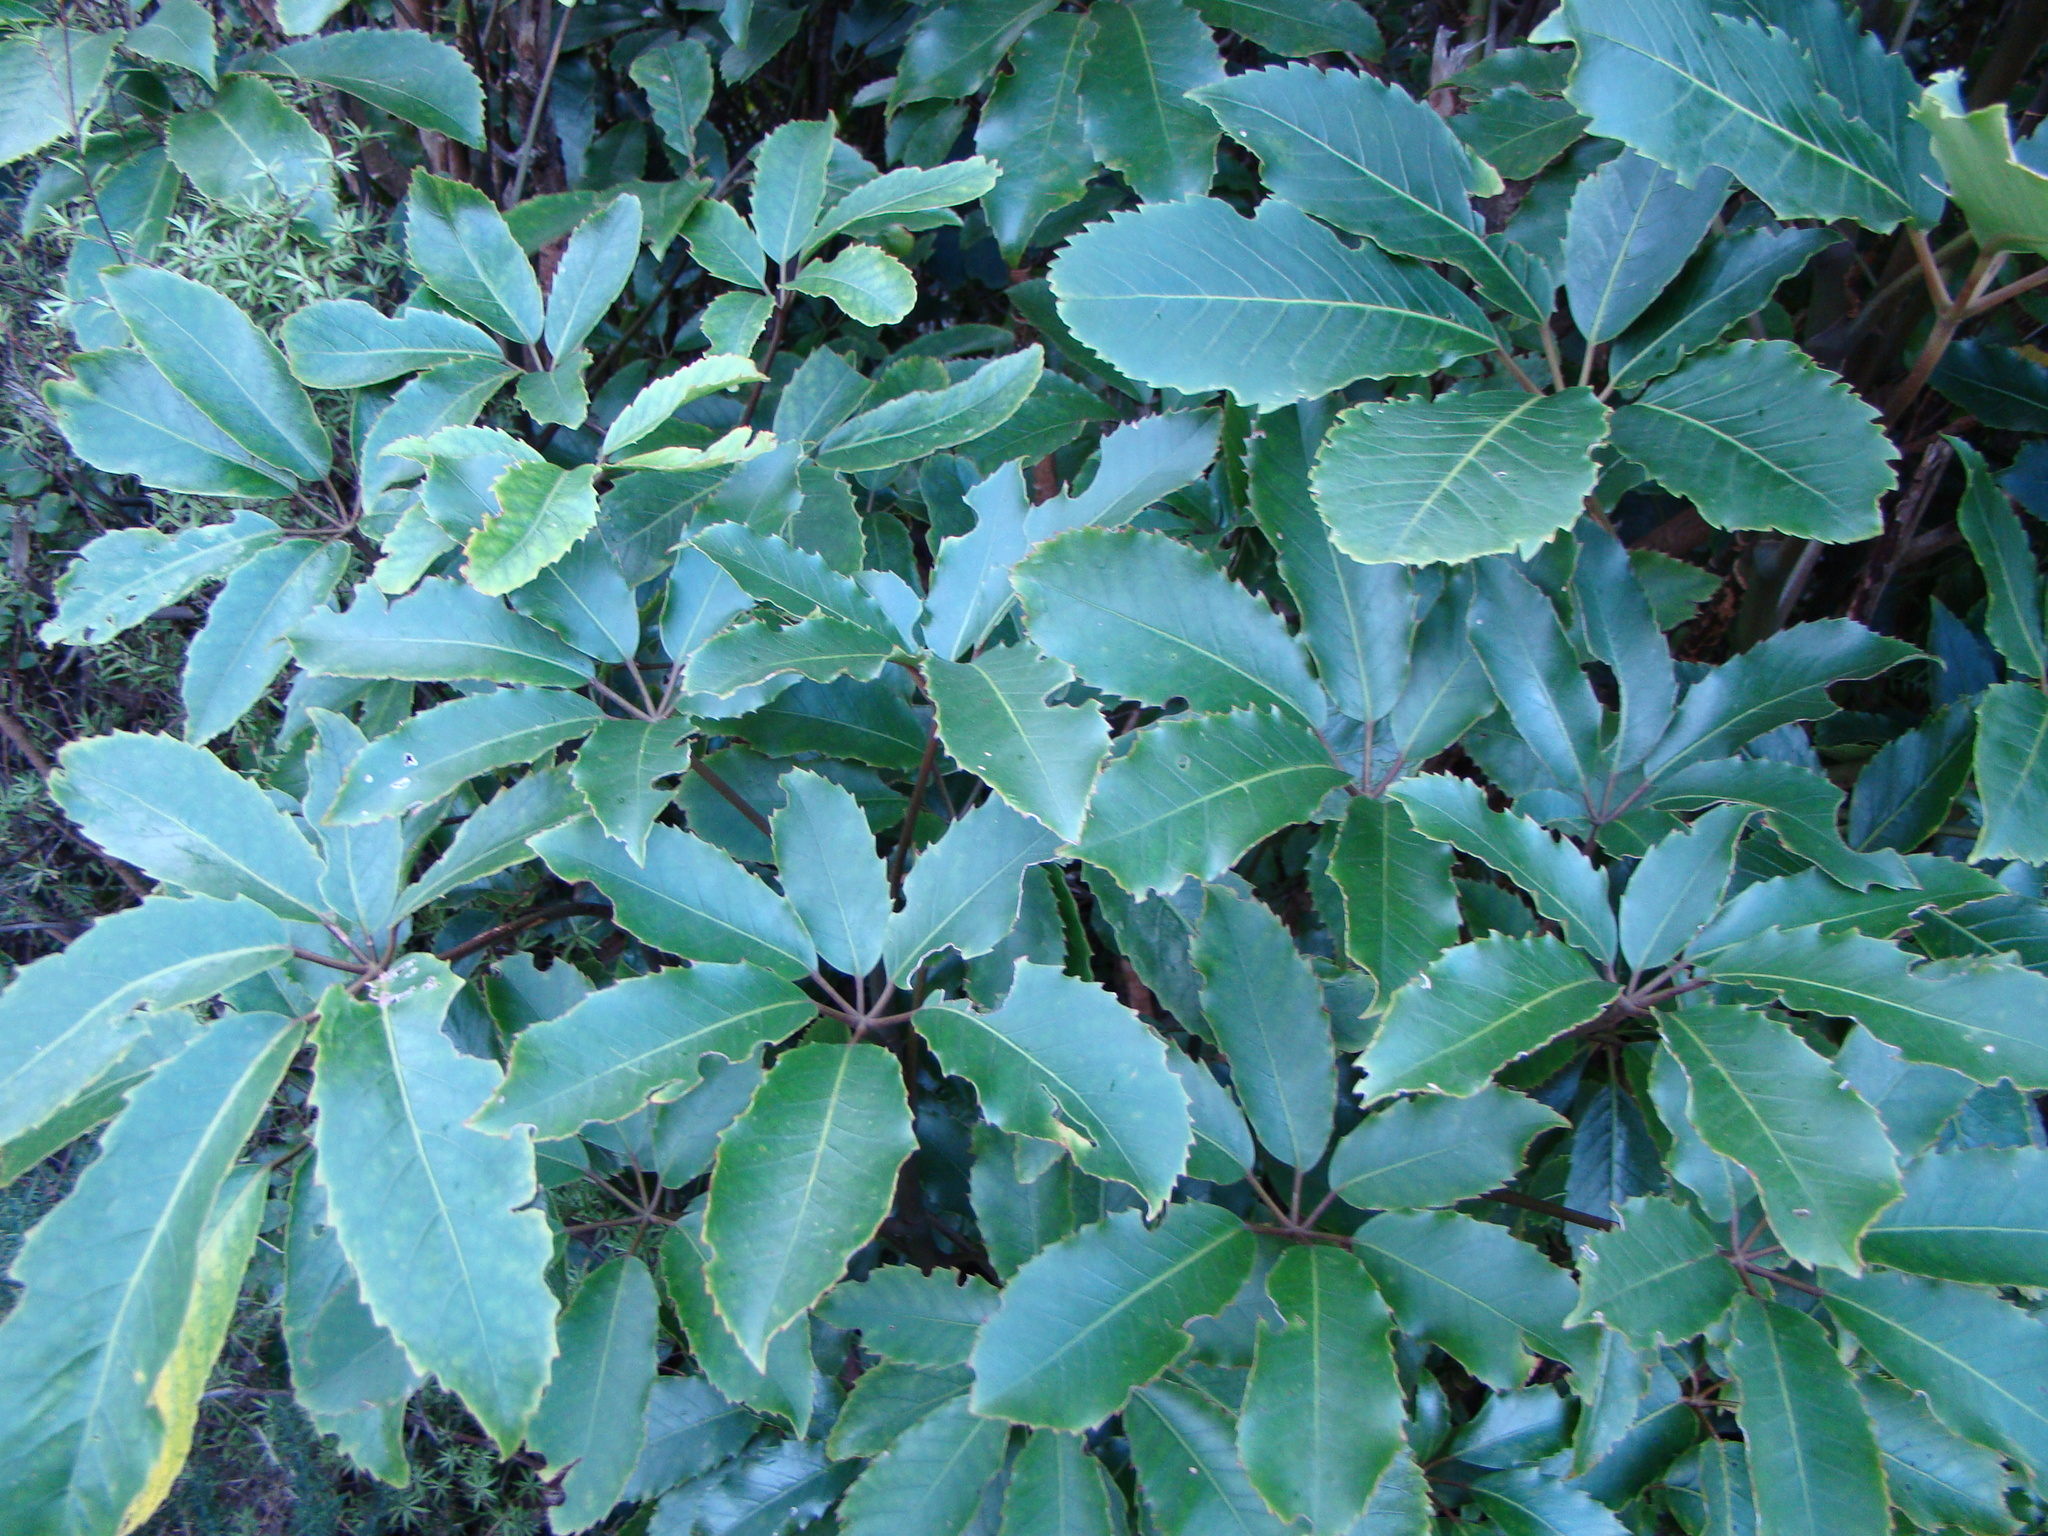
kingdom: Plantae
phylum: Tracheophyta
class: Magnoliopsida
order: Apiales
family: Araliaceae
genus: Neopanax
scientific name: Neopanax arboreus
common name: Five-fingers
